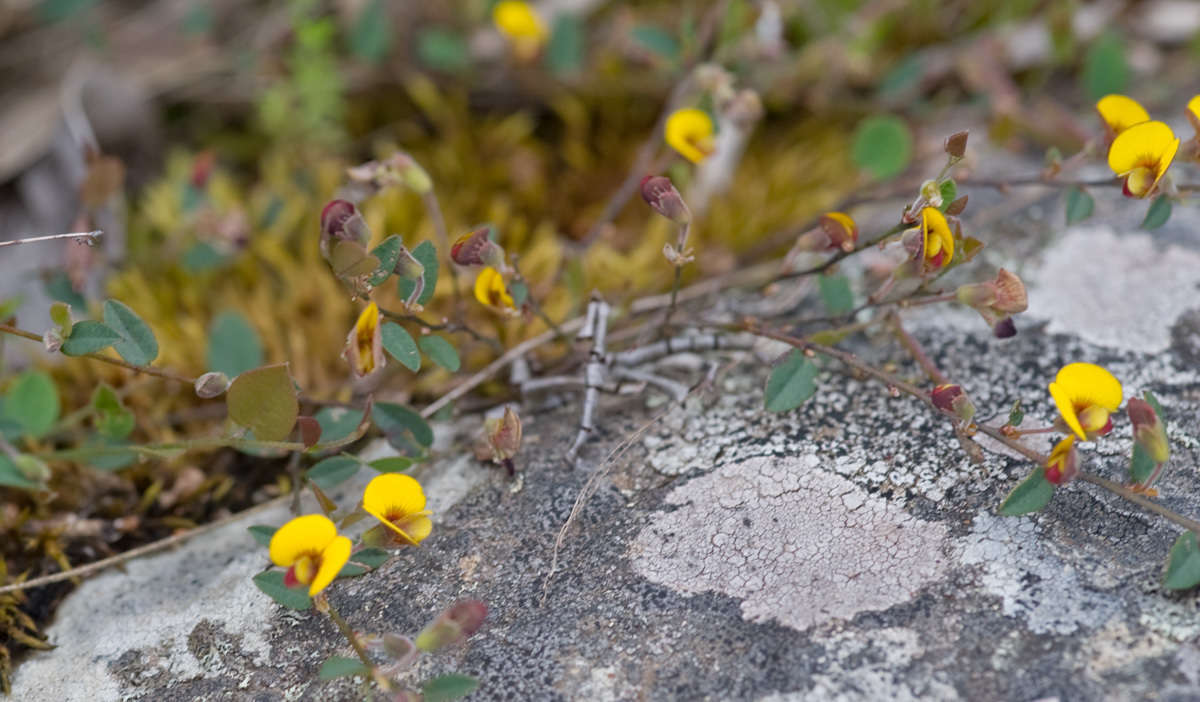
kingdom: Plantae
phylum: Tracheophyta
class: Magnoliopsida
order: Fabales
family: Fabaceae
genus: Bossiaea
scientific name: Bossiaea prostrata
